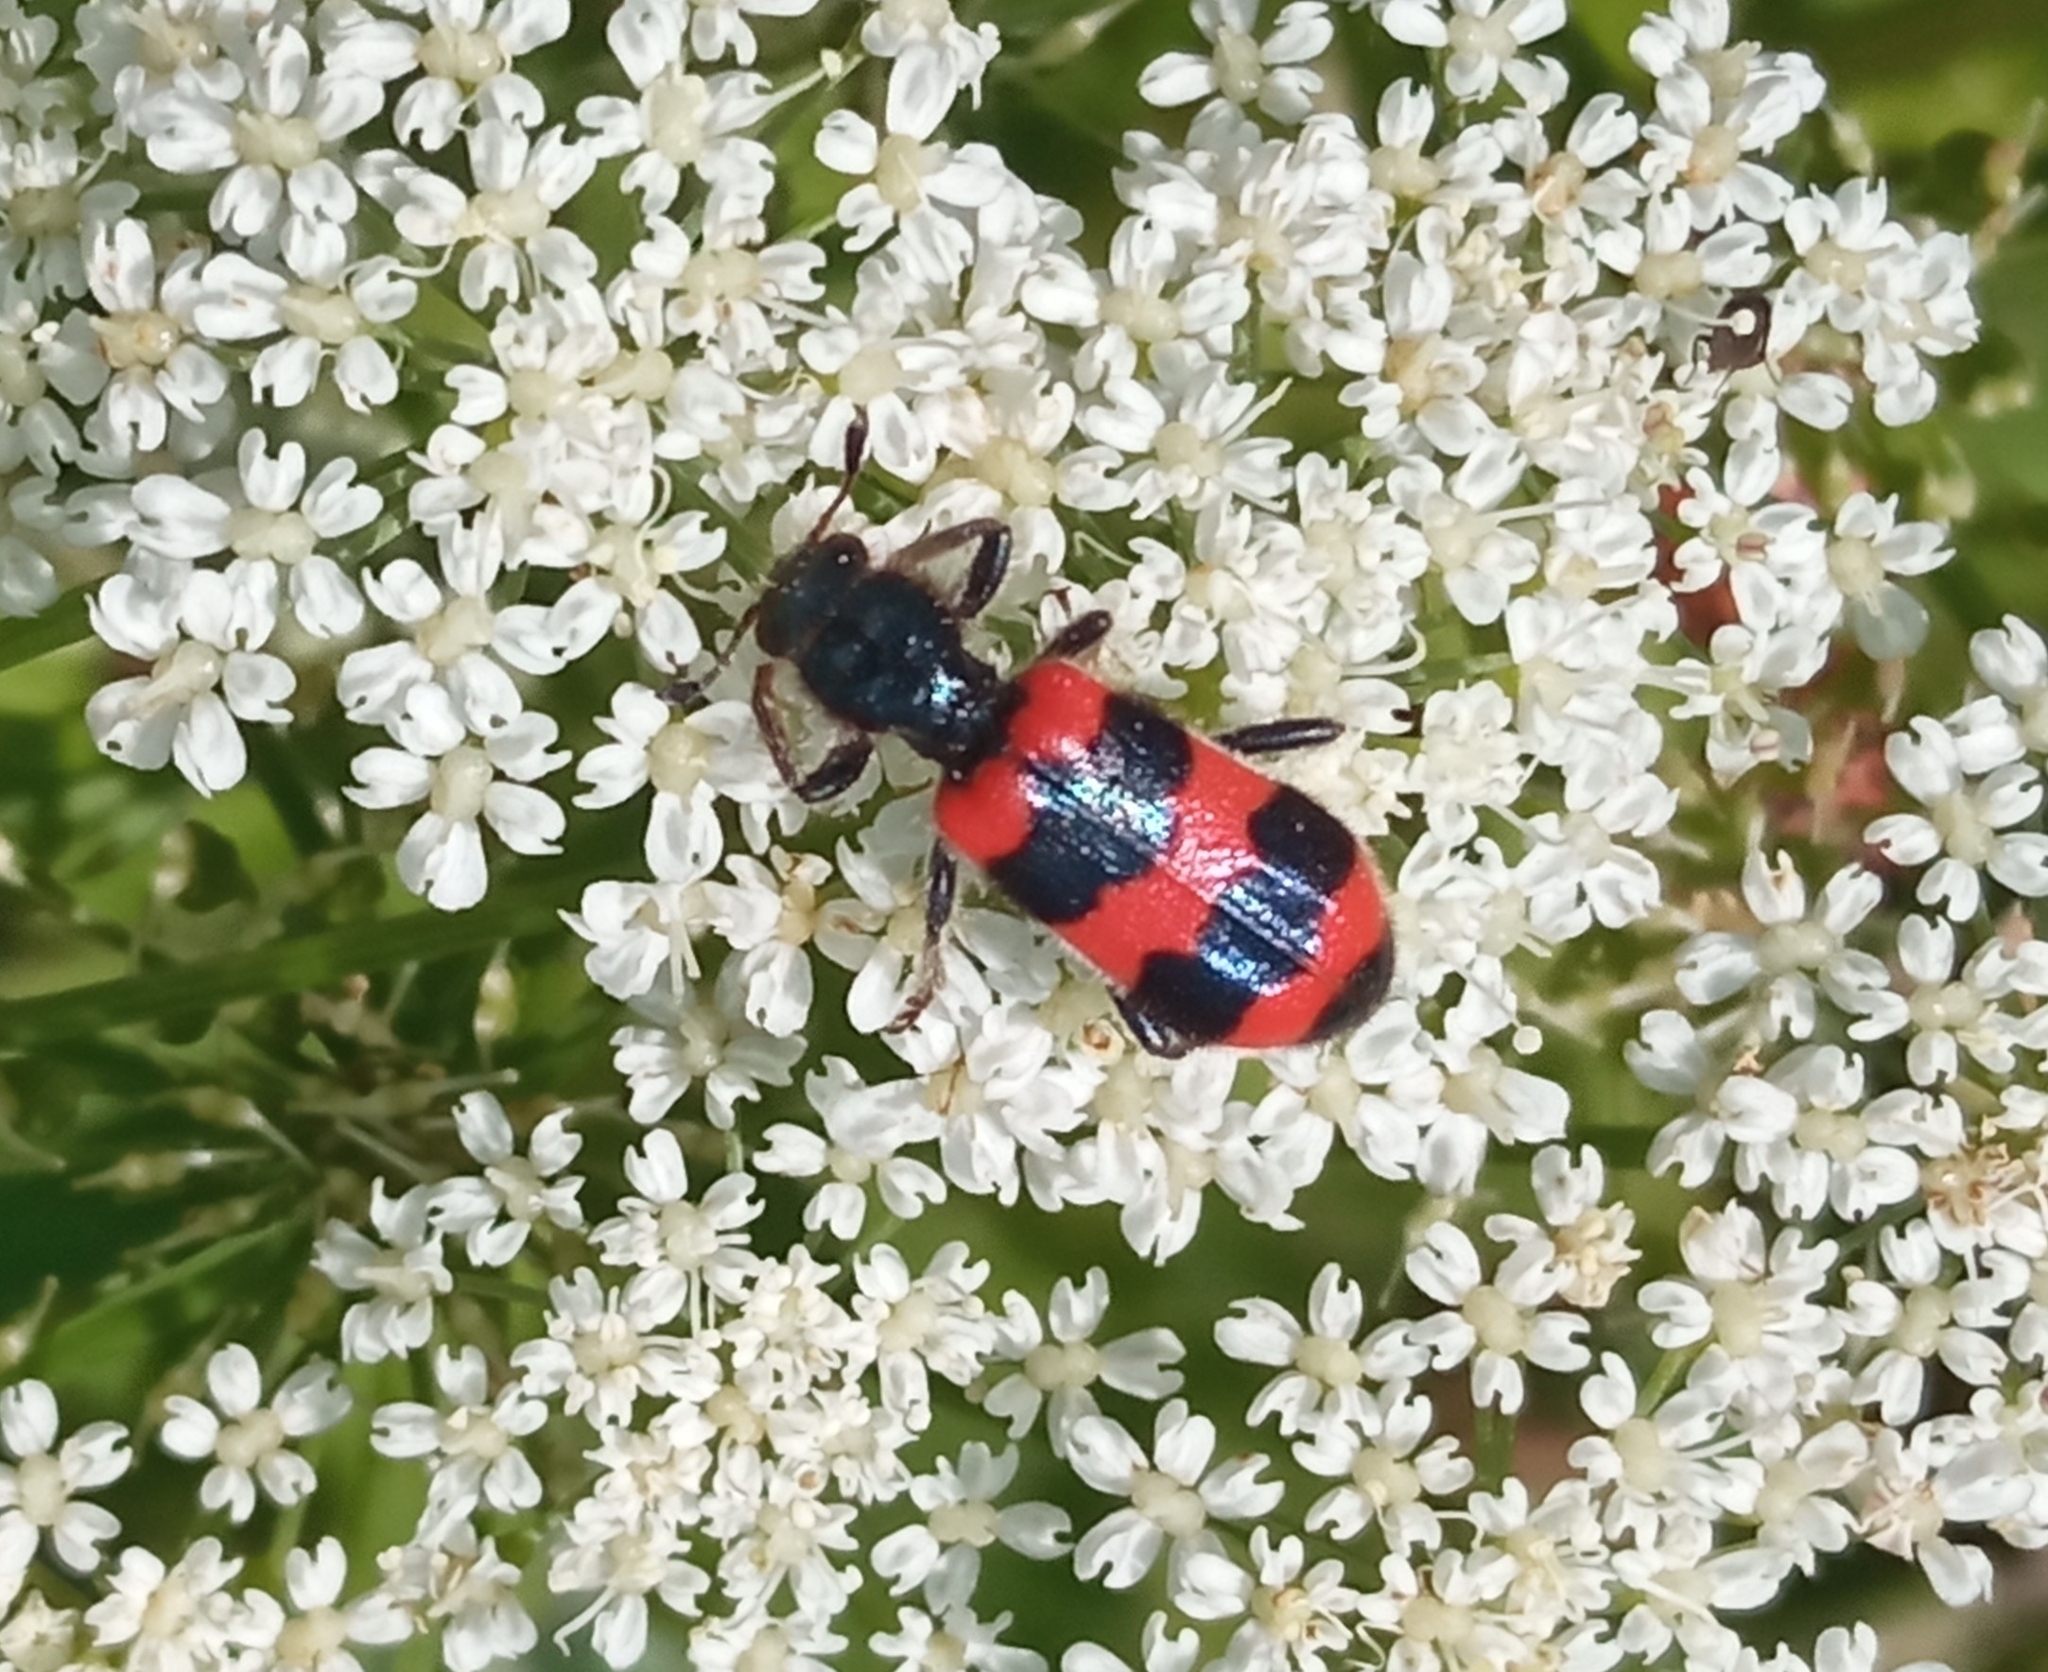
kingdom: Animalia
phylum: Arthropoda
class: Insecta
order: Coleoptera
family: Cleridae
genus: Trichodes
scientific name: Trichodes apiarius
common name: Bee-eating beetle
